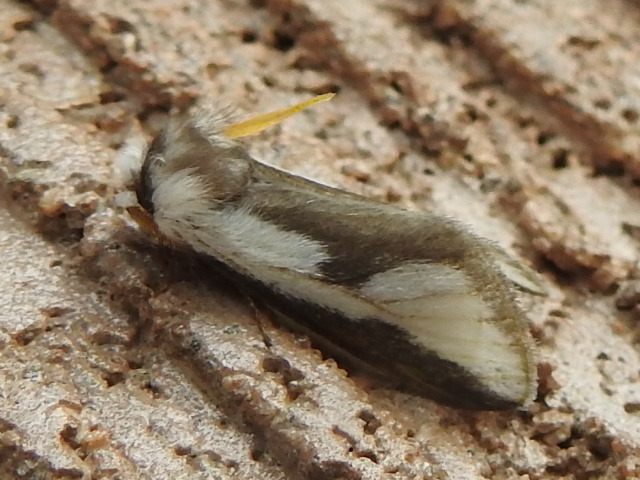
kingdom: Animalia
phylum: Arthropoda
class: Insecta
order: Lepidoptera
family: Megalopygidae
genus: Norape
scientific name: Norape tener
